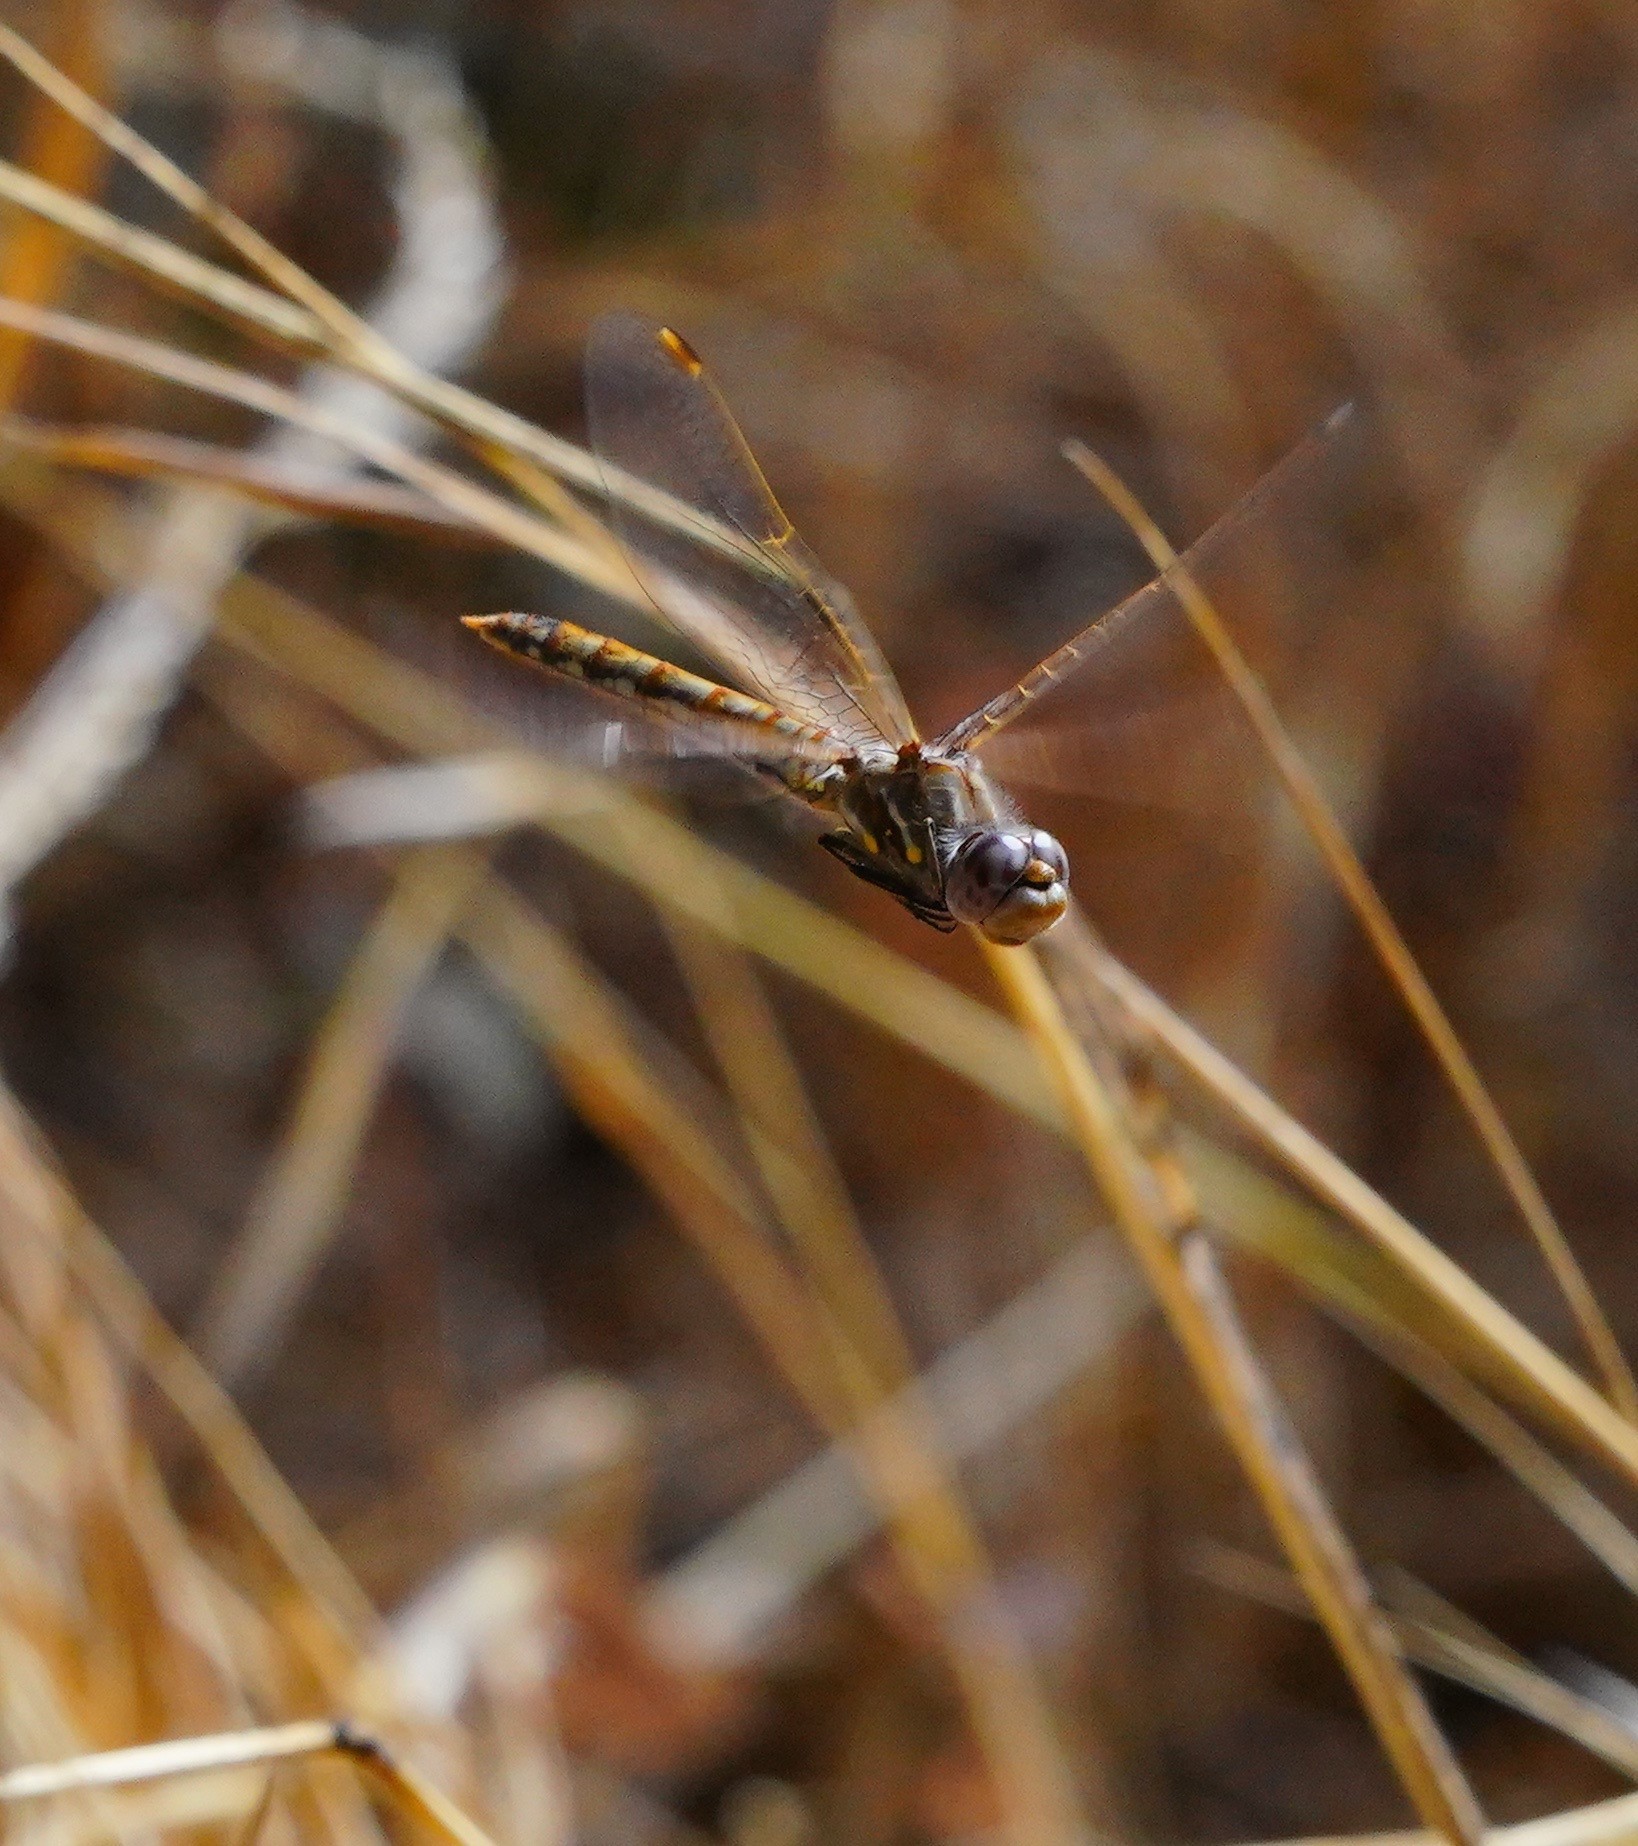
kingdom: Animalia
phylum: Arthropoda
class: Insecta
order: Odonata
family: Libellulidae
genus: Sympetrum
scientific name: Sympetrum corruptum
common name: Variegated meadowhawk
